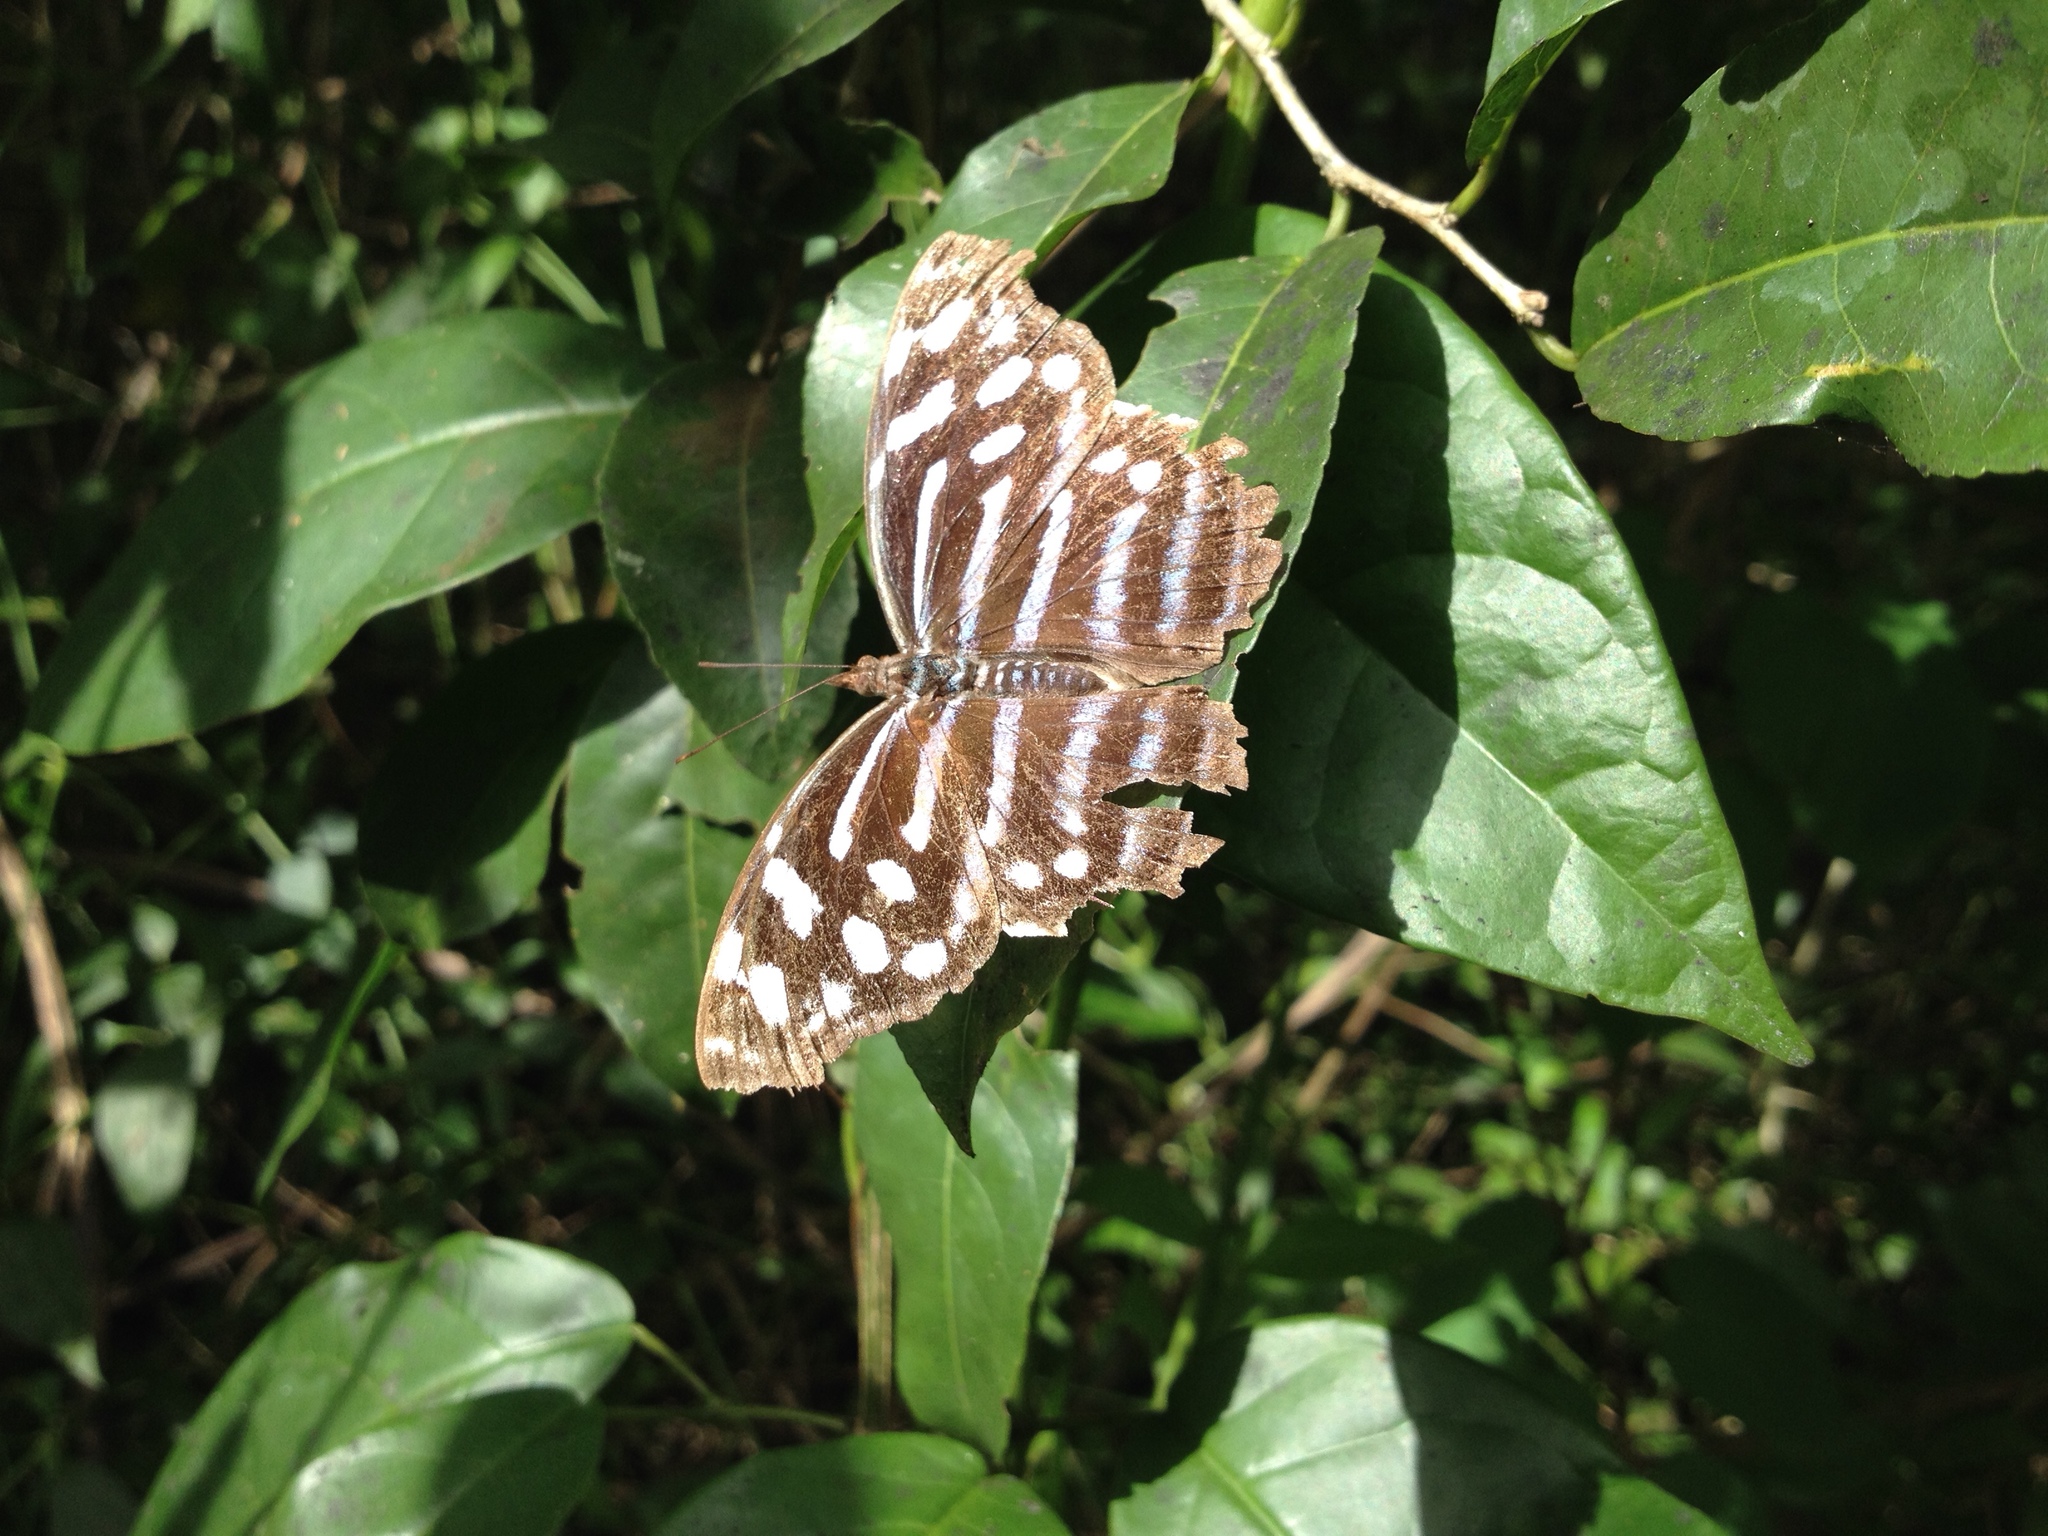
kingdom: Animalia
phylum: Arthropoda
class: Insecta
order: Lepidoptera
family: Nymphalidae
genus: Myscelia
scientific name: Myscelia cyaniris
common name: Whitened bluewing
